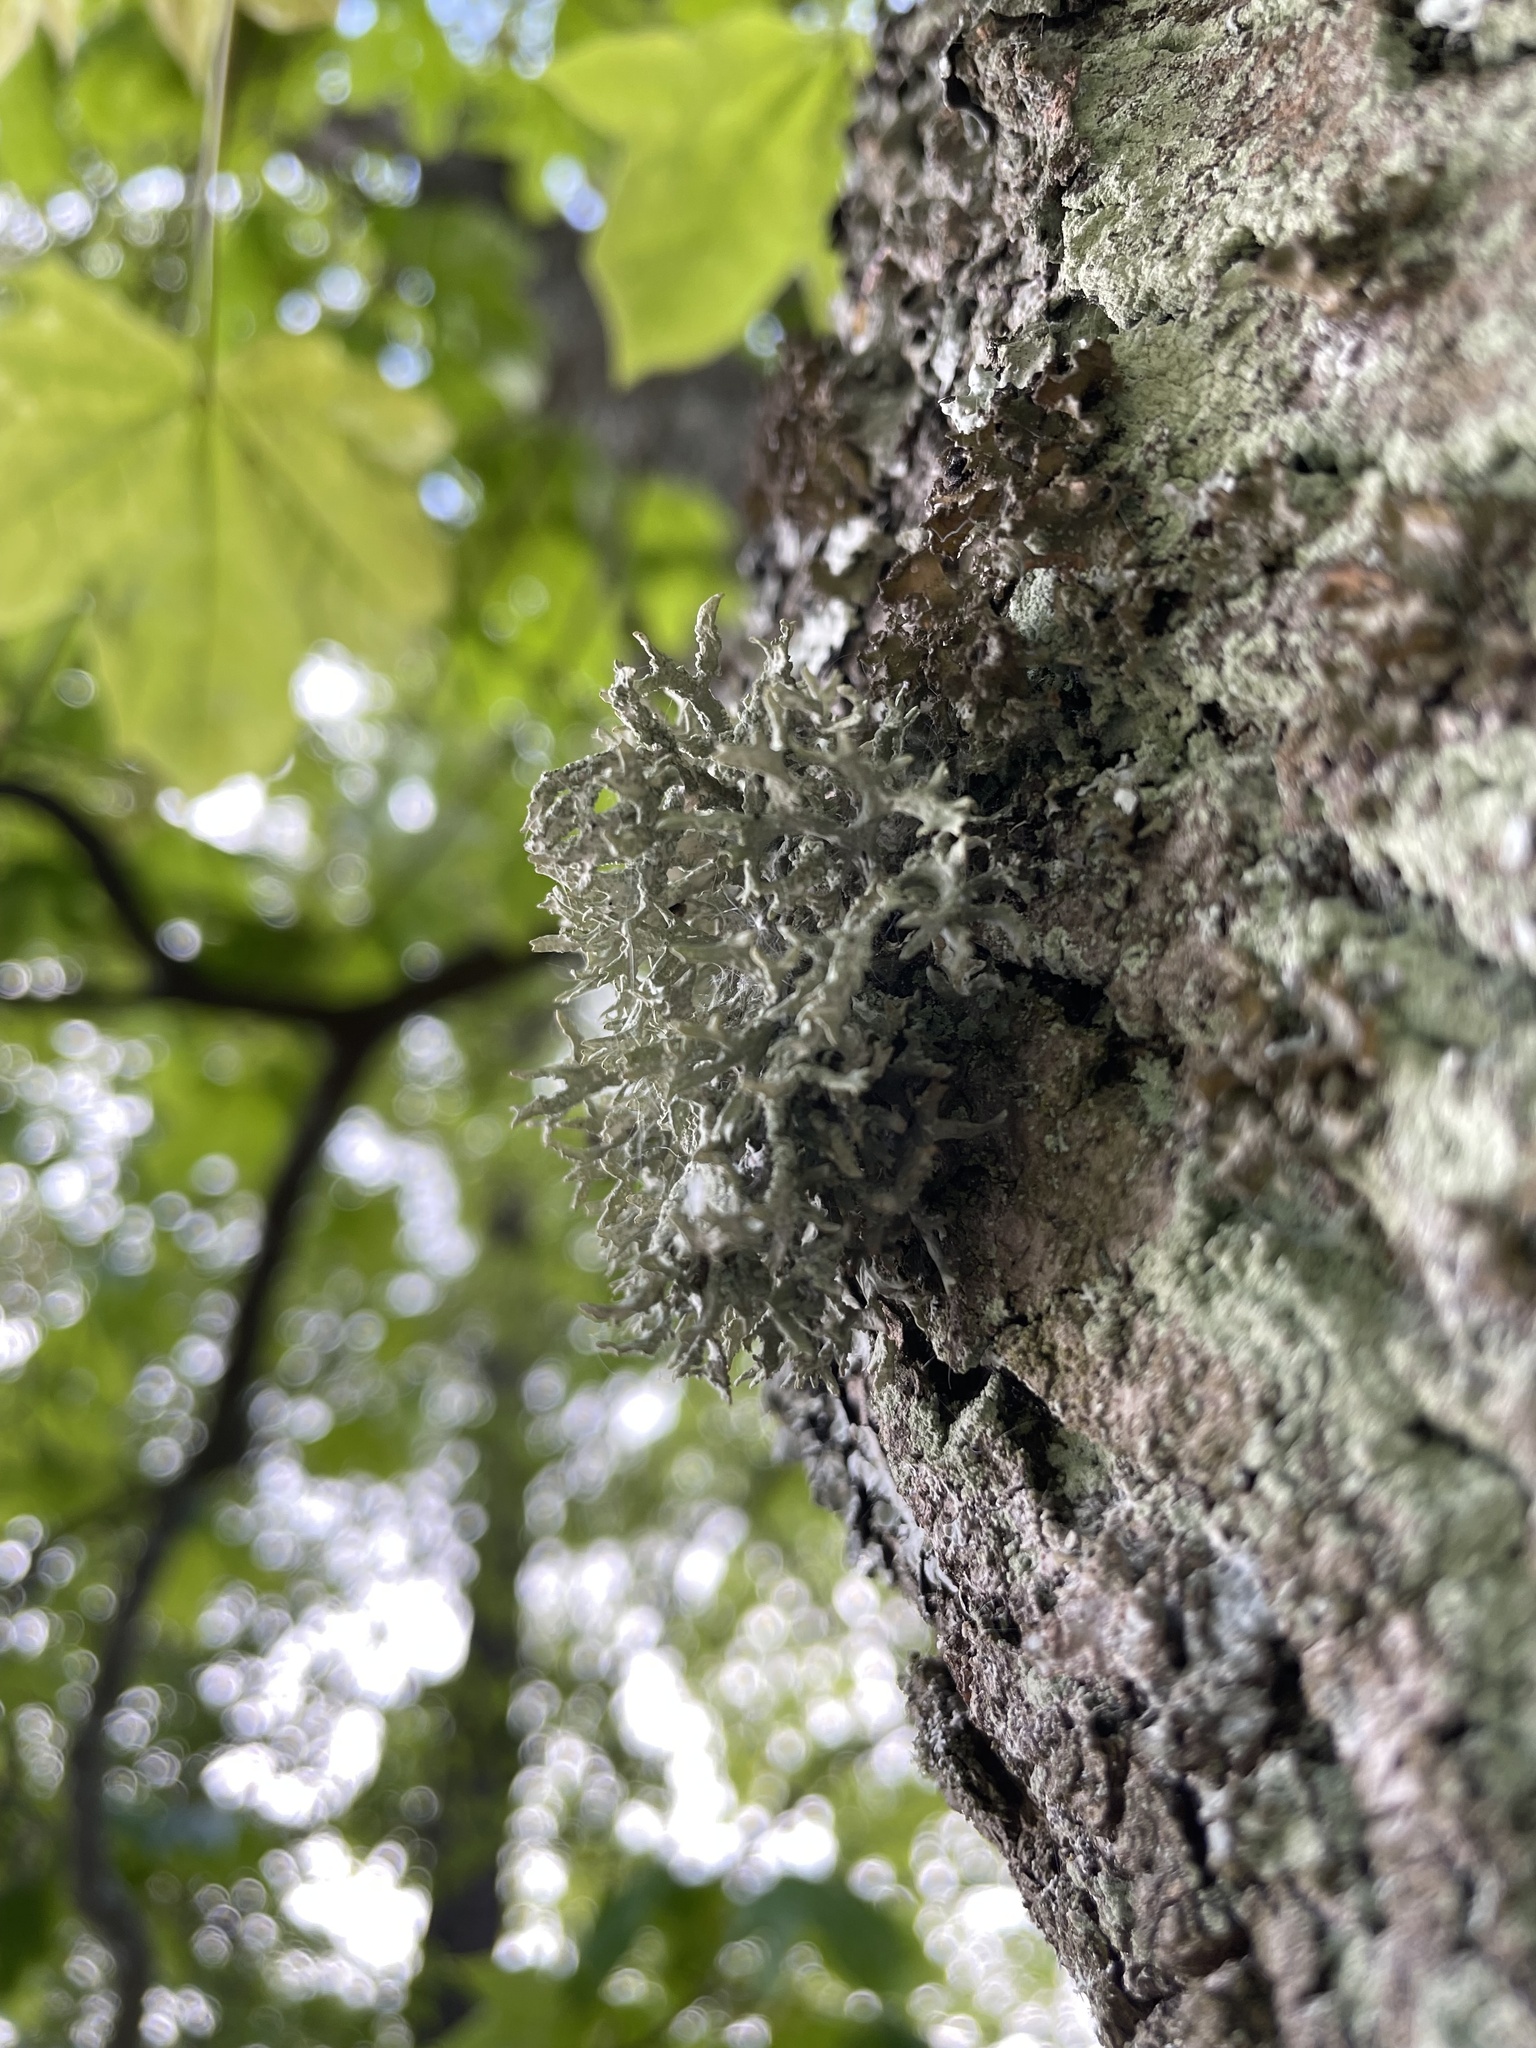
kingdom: Fungi
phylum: Ascomycota
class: Lecanoromycetes
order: Lecanorales
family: Parmeliaceae
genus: Evernia
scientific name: Evernia prunastri
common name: Oak moss
